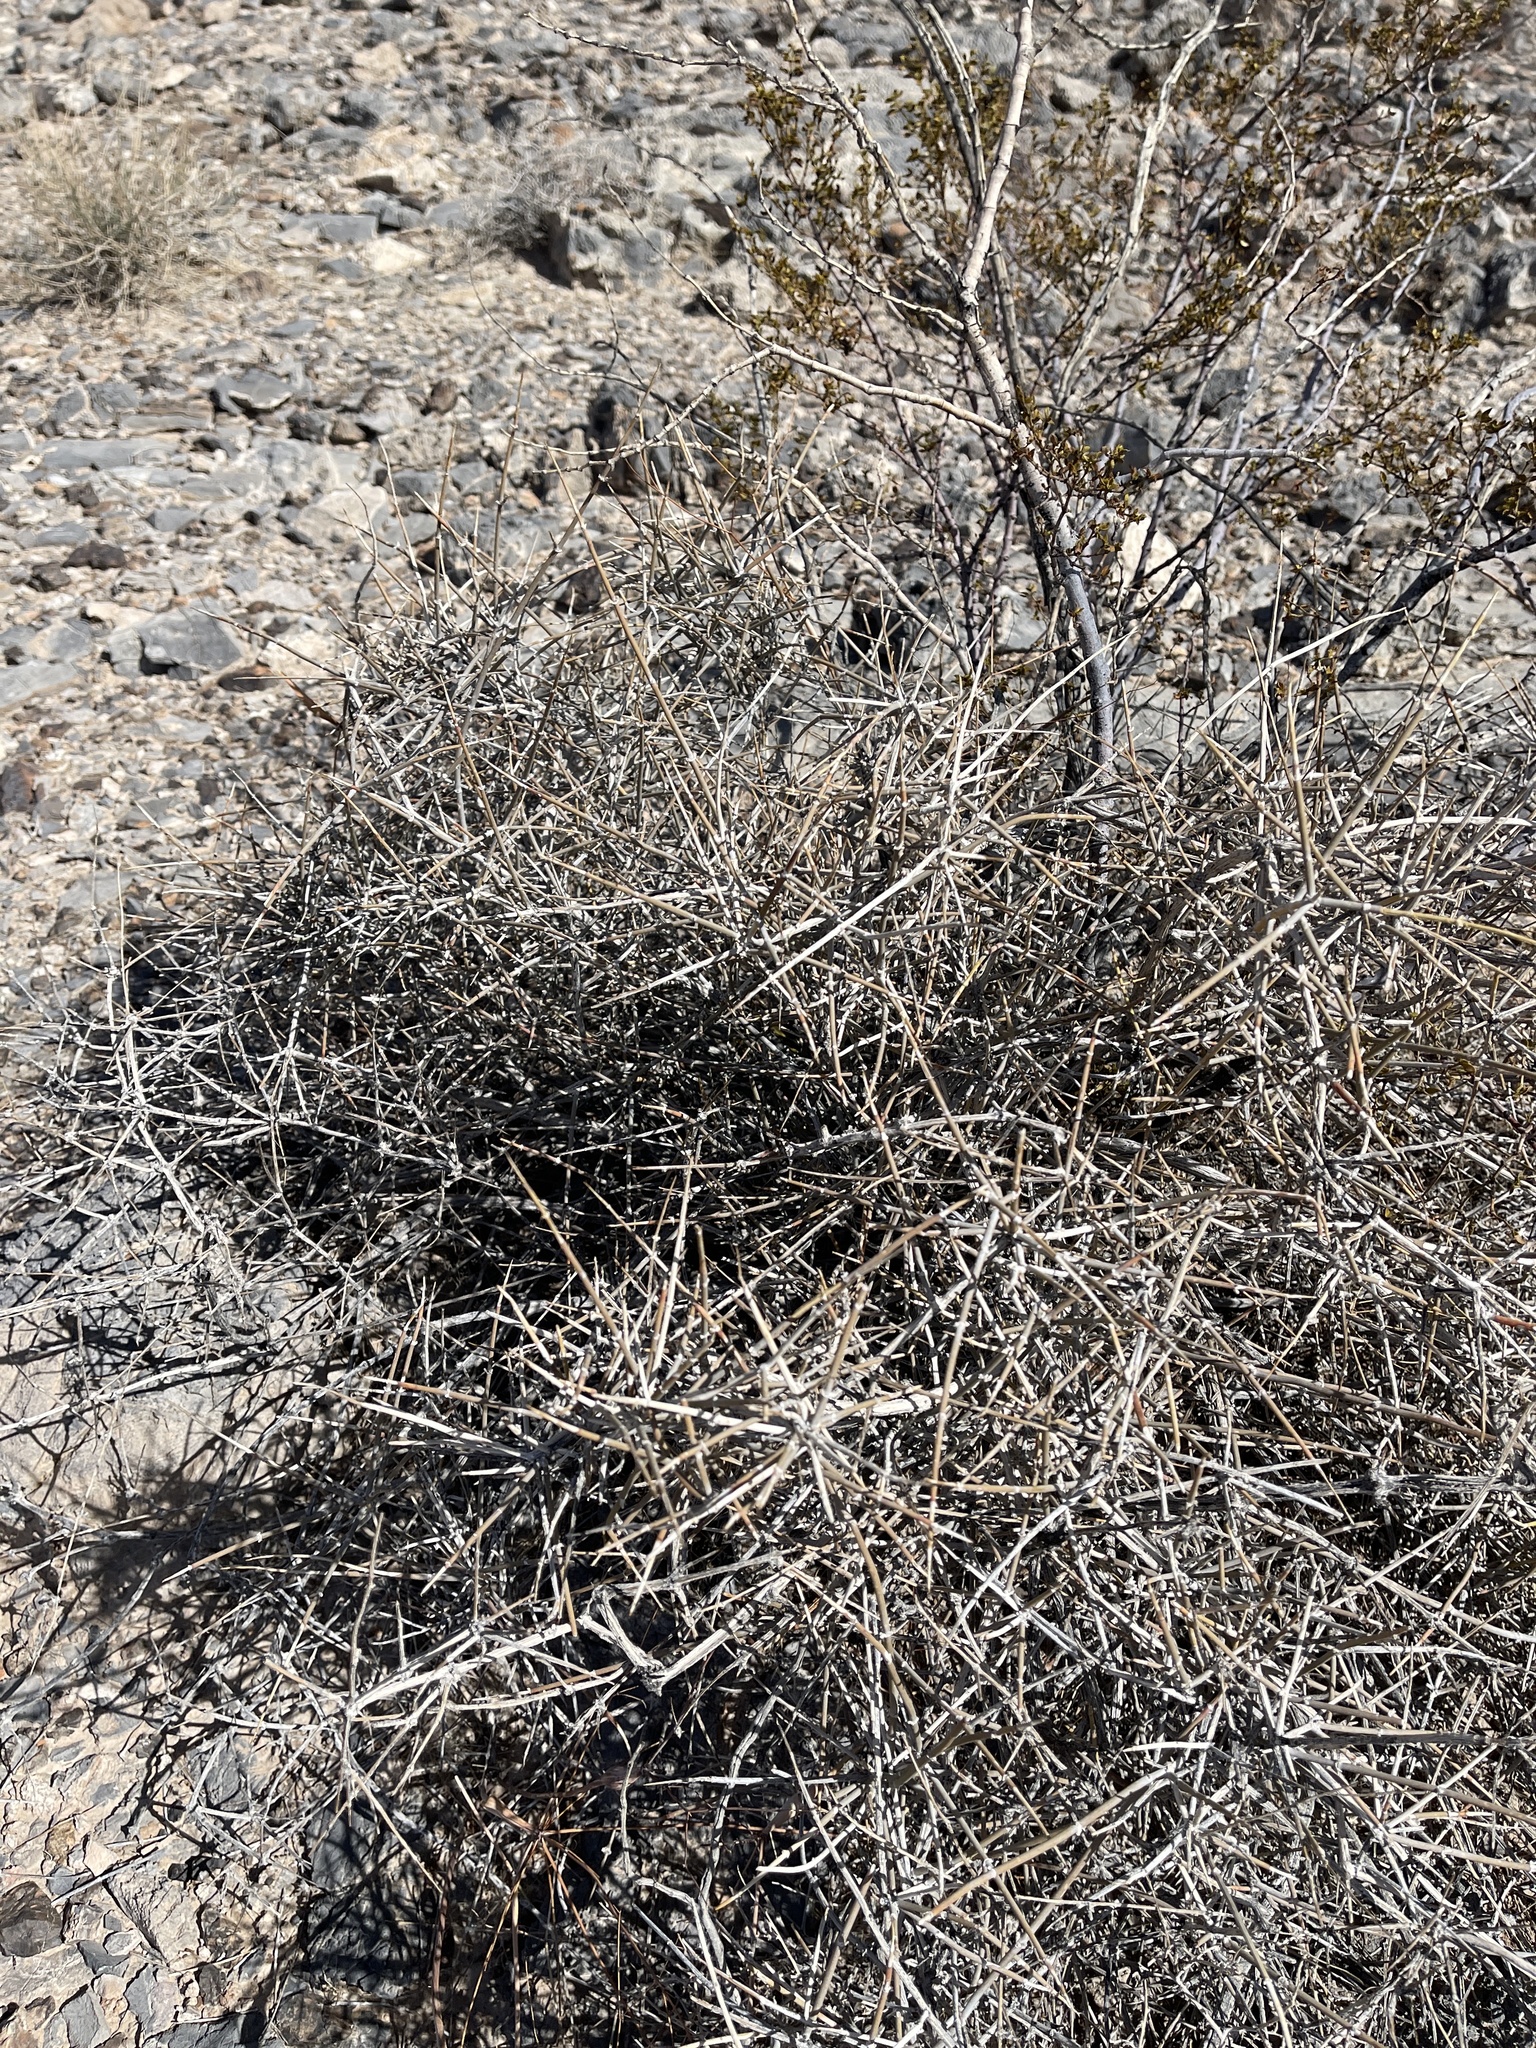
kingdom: Plantae
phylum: Tracheophyta
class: Gnetopsida
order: Ephedrales
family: Ephedraceae
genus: Ephedra
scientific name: Ephedra nevadensis
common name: Gray ephedra
